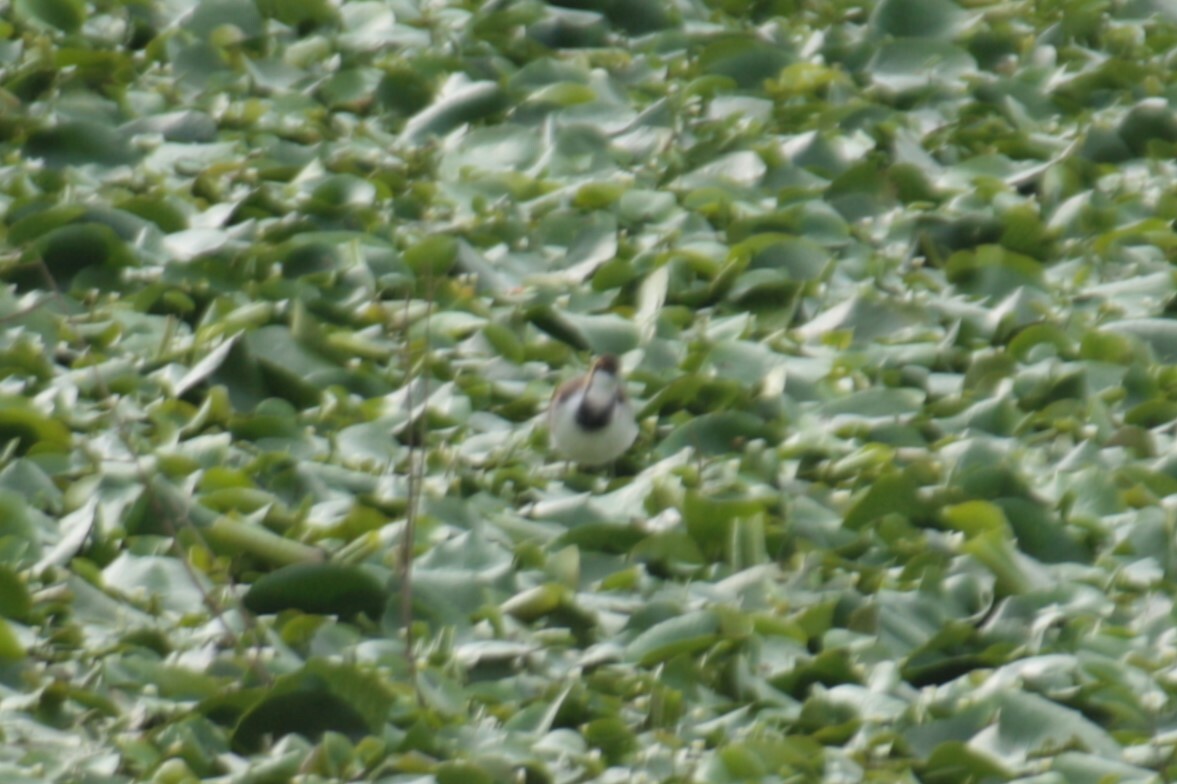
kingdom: Animalia
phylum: Chordata
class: Aves
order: Charadriiformes
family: Jacanidae
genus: Hydrophasianus
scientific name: Hydrophasianus chirurgus
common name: Pheasant-tailed jacana
